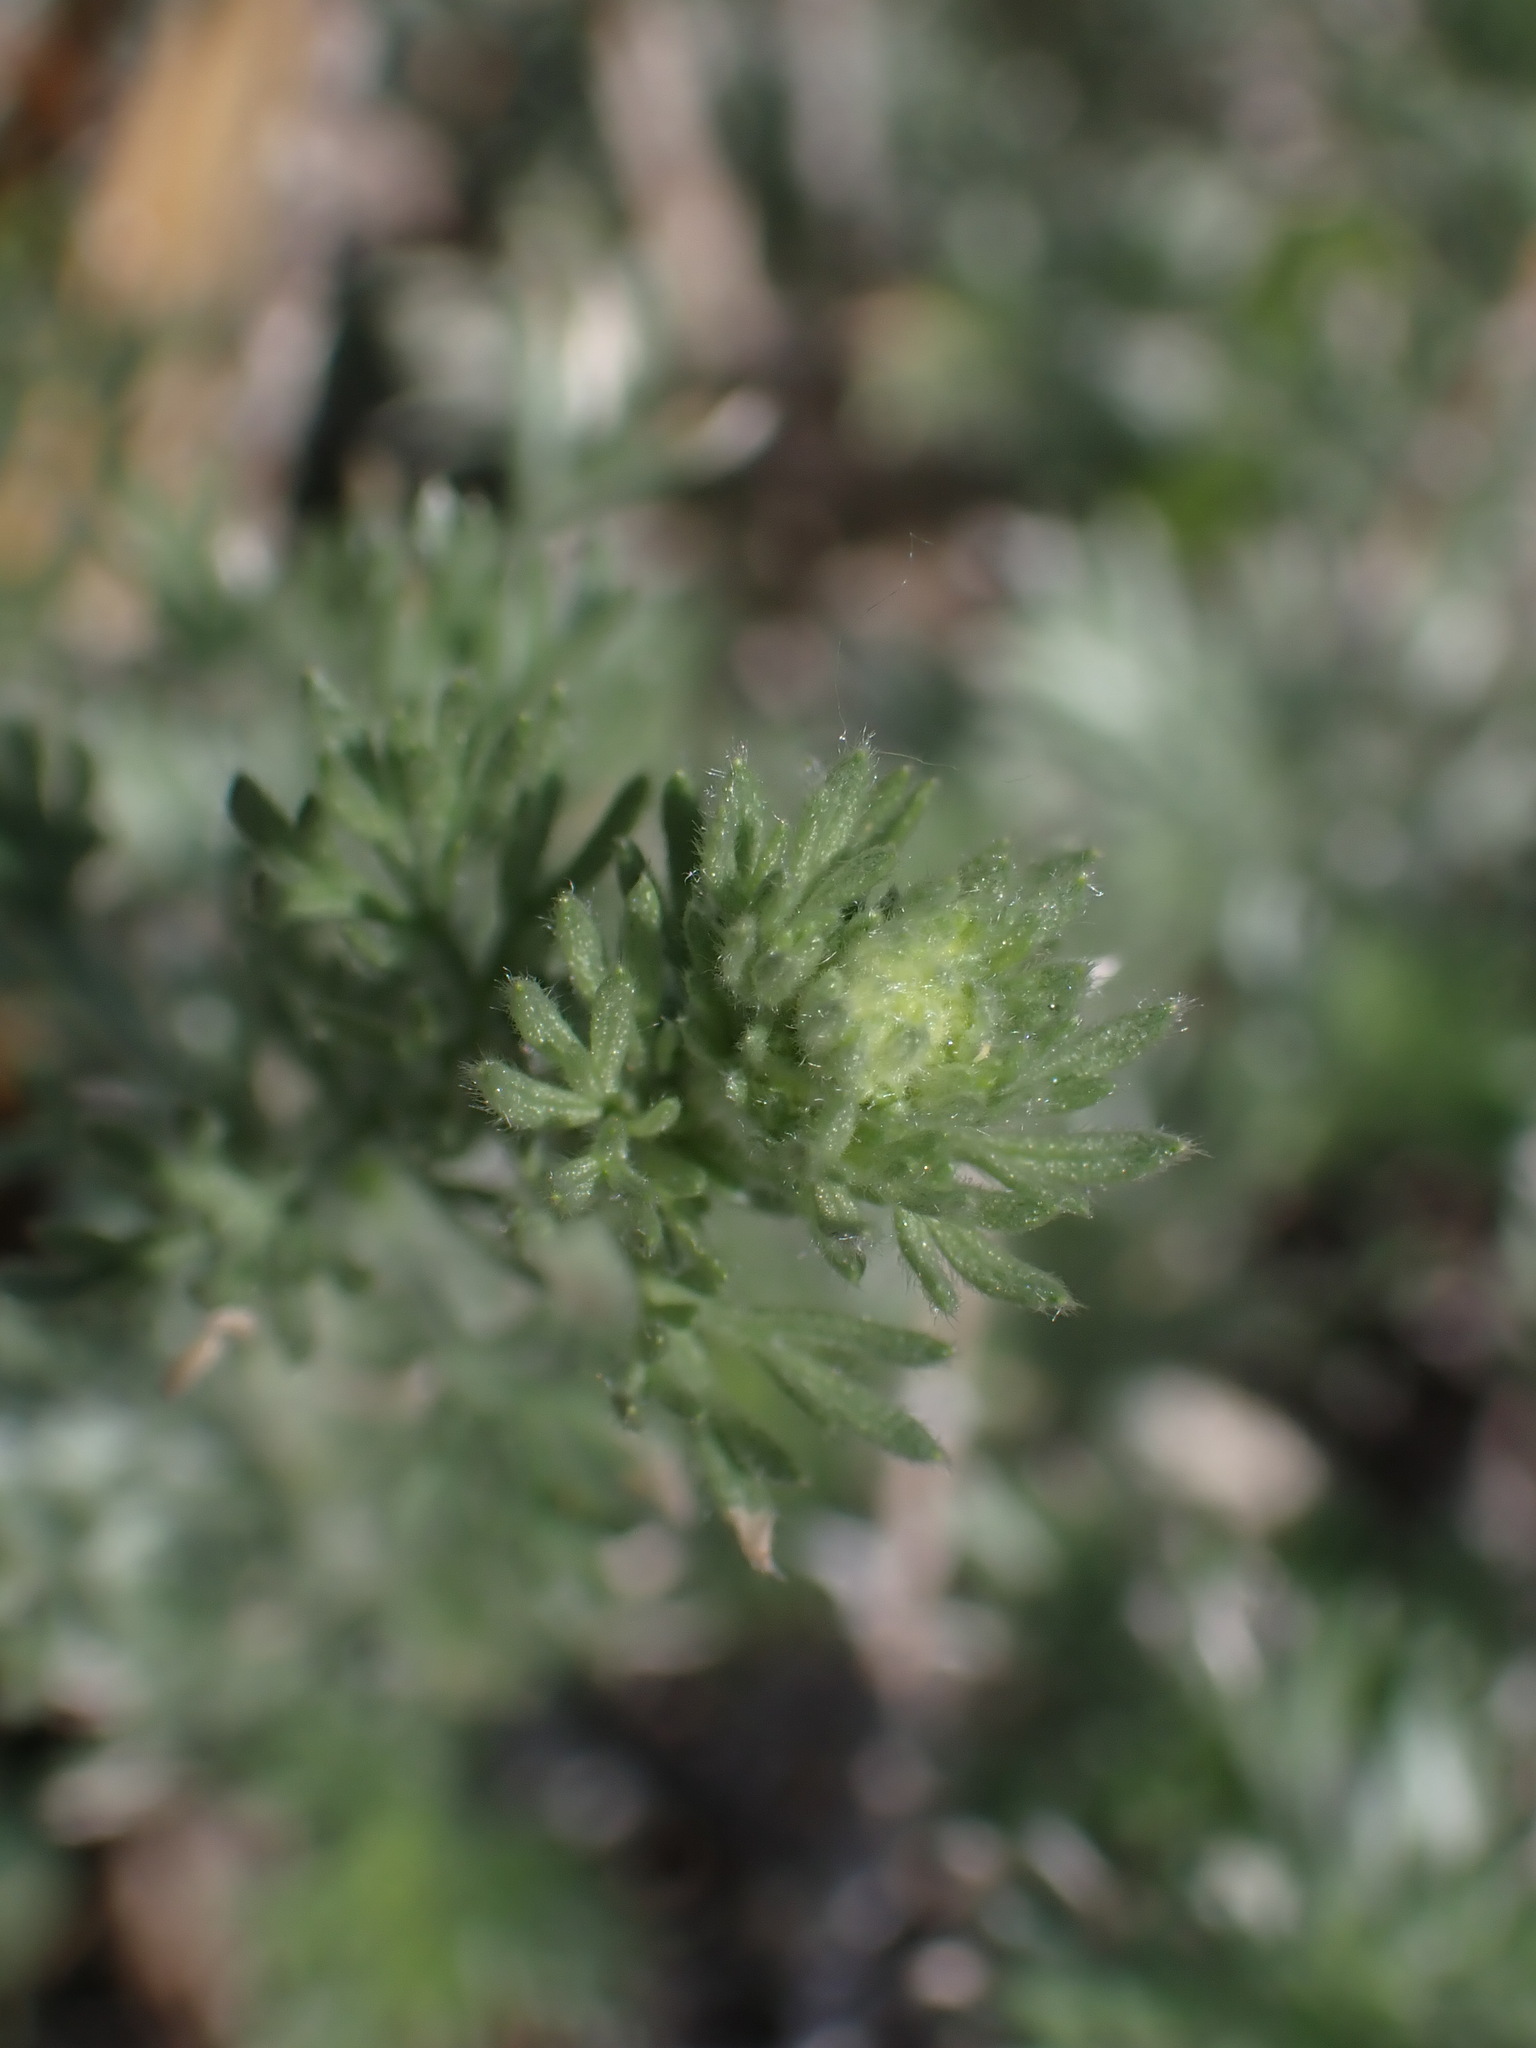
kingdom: Plantae
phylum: Tracheophyta
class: Magnoliopsida
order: Asterales
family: Asteraceae
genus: Artemisia
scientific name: Artemisia frigida
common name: Prairie sagewort
